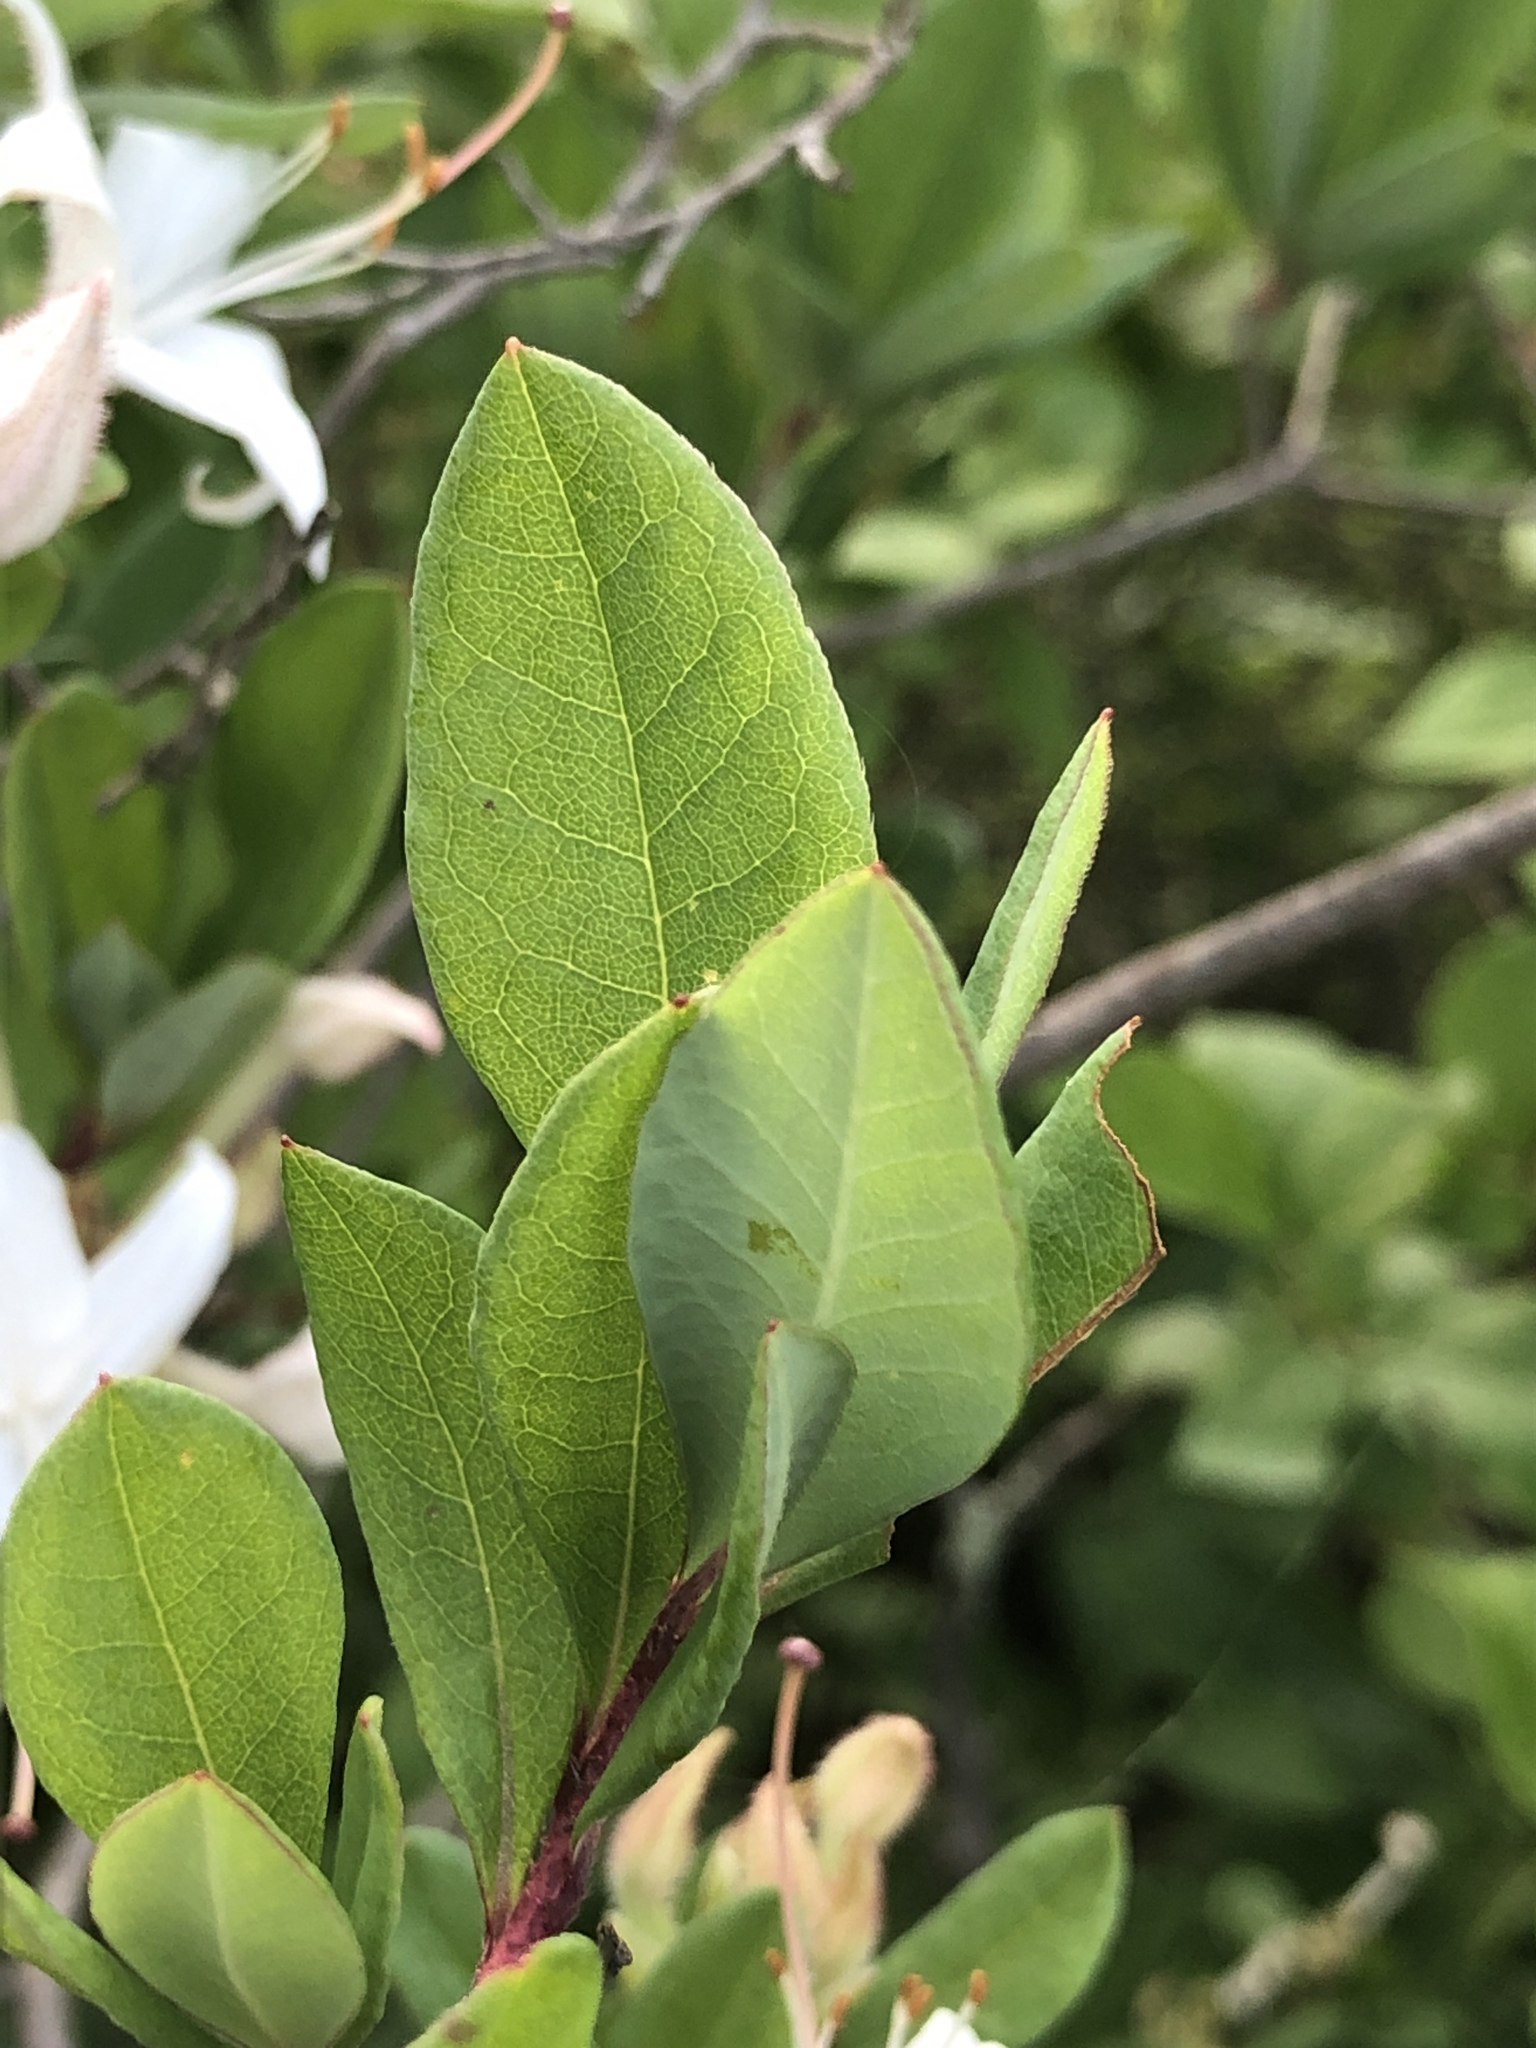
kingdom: Plantae
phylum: Tracheophyta
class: Magnoliopsida
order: Ericales
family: Ericaceae
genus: Rhododendron
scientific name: Rhododendron viscosum
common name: Clammy azalea
